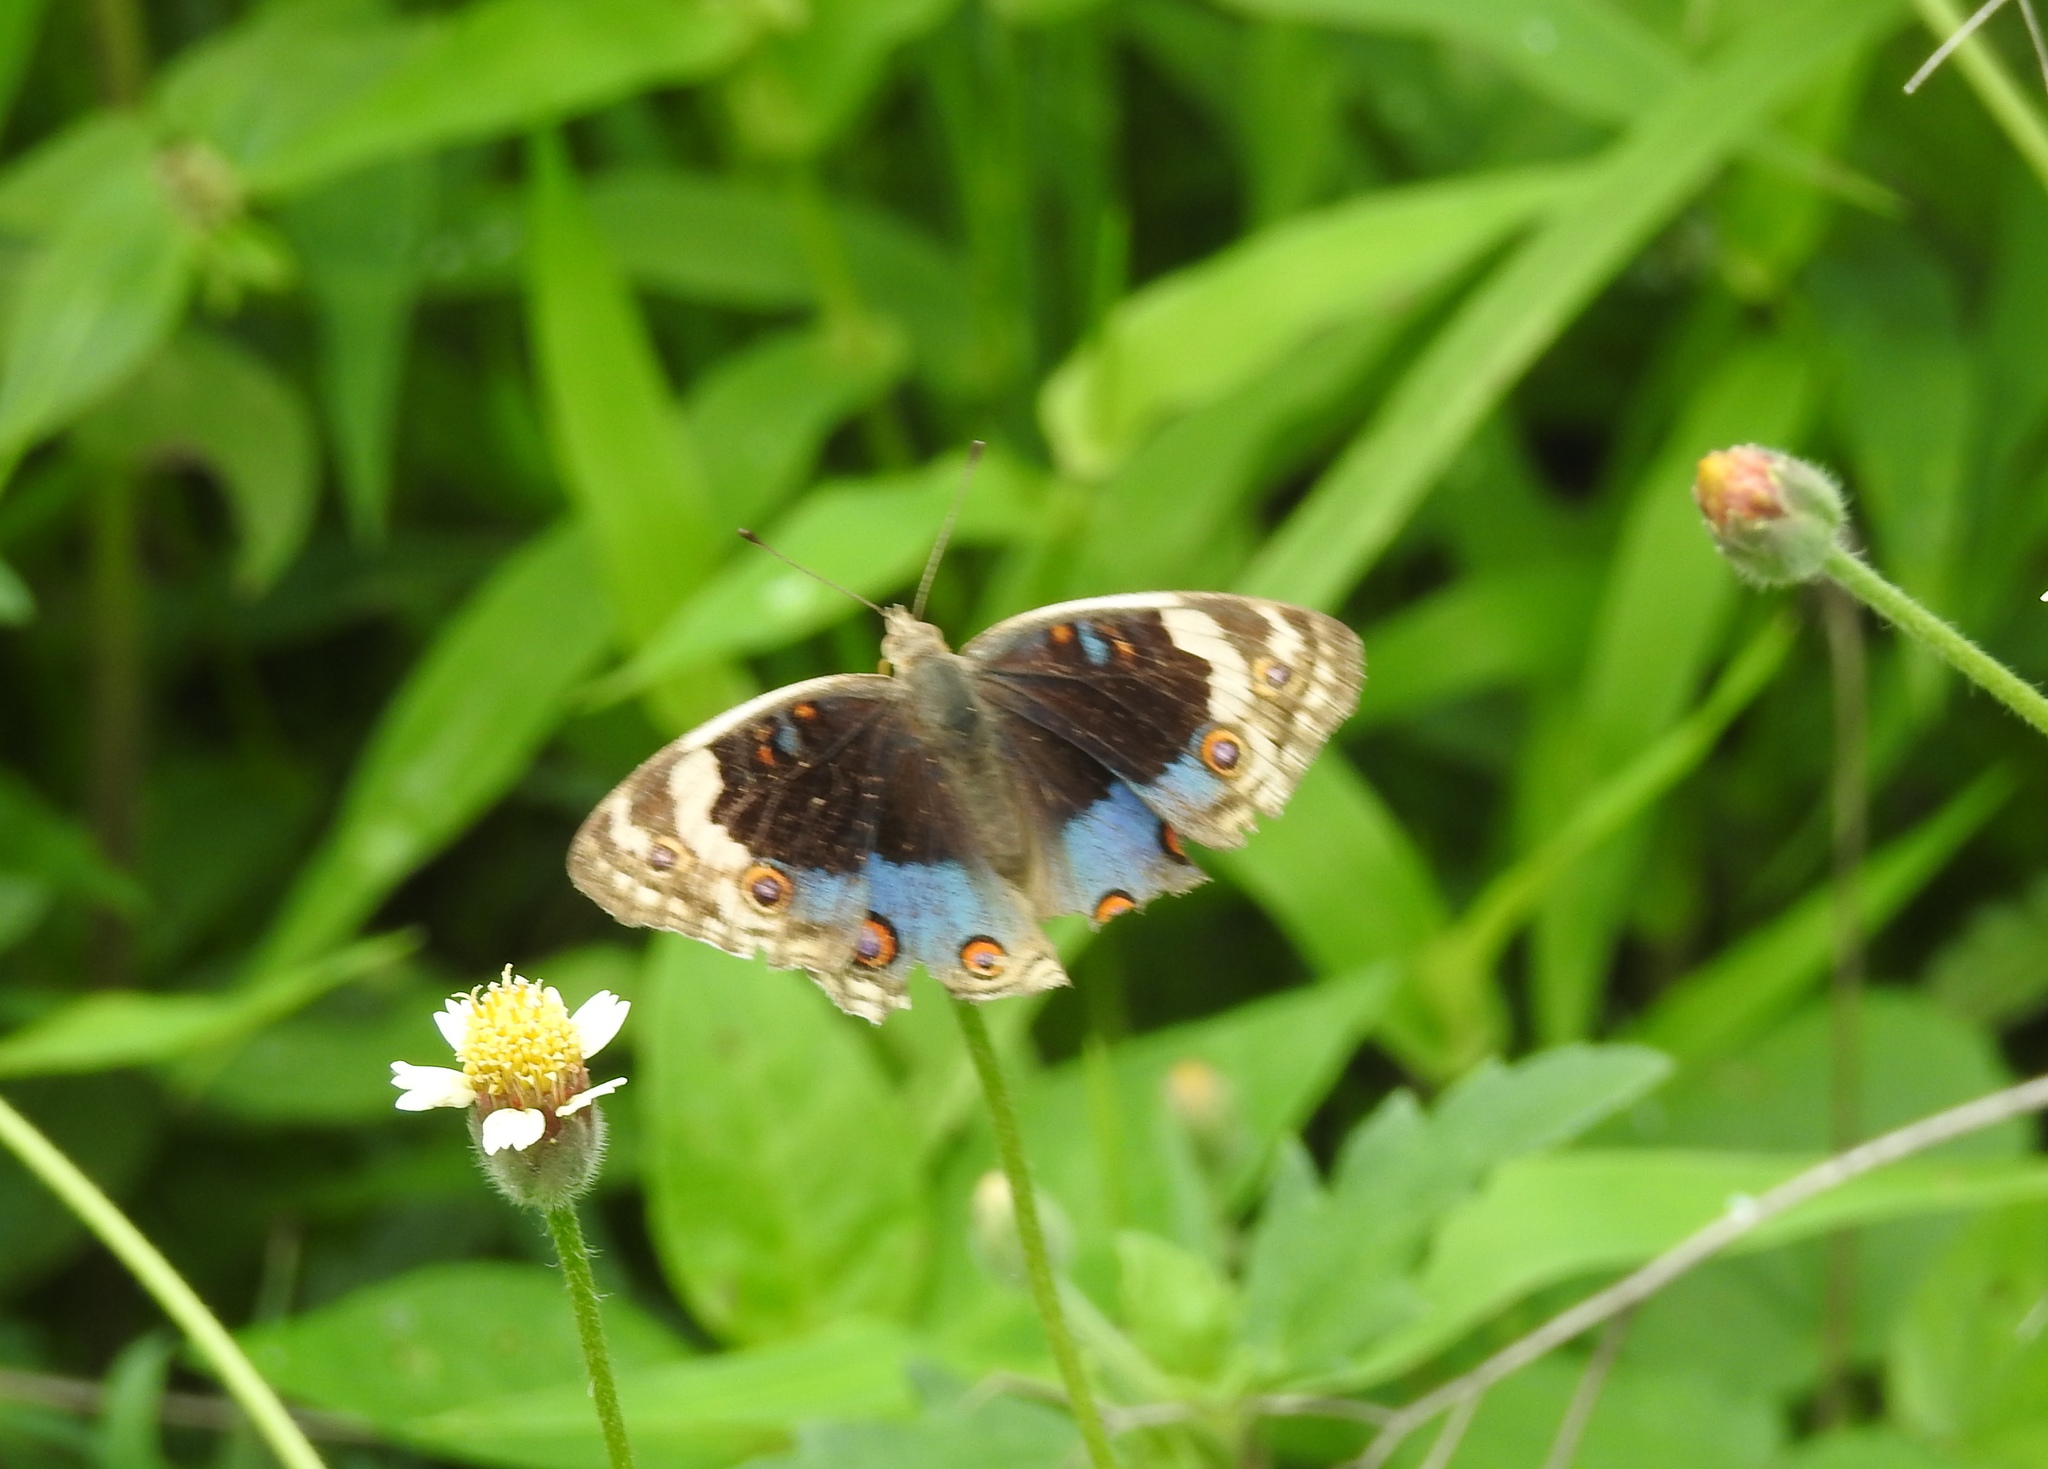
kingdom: Animalia
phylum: Arthropoda
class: Insecta
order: Lepidoptera
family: Nymphalidae
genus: Junonia
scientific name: Junonia orithya
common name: Blue pansy
